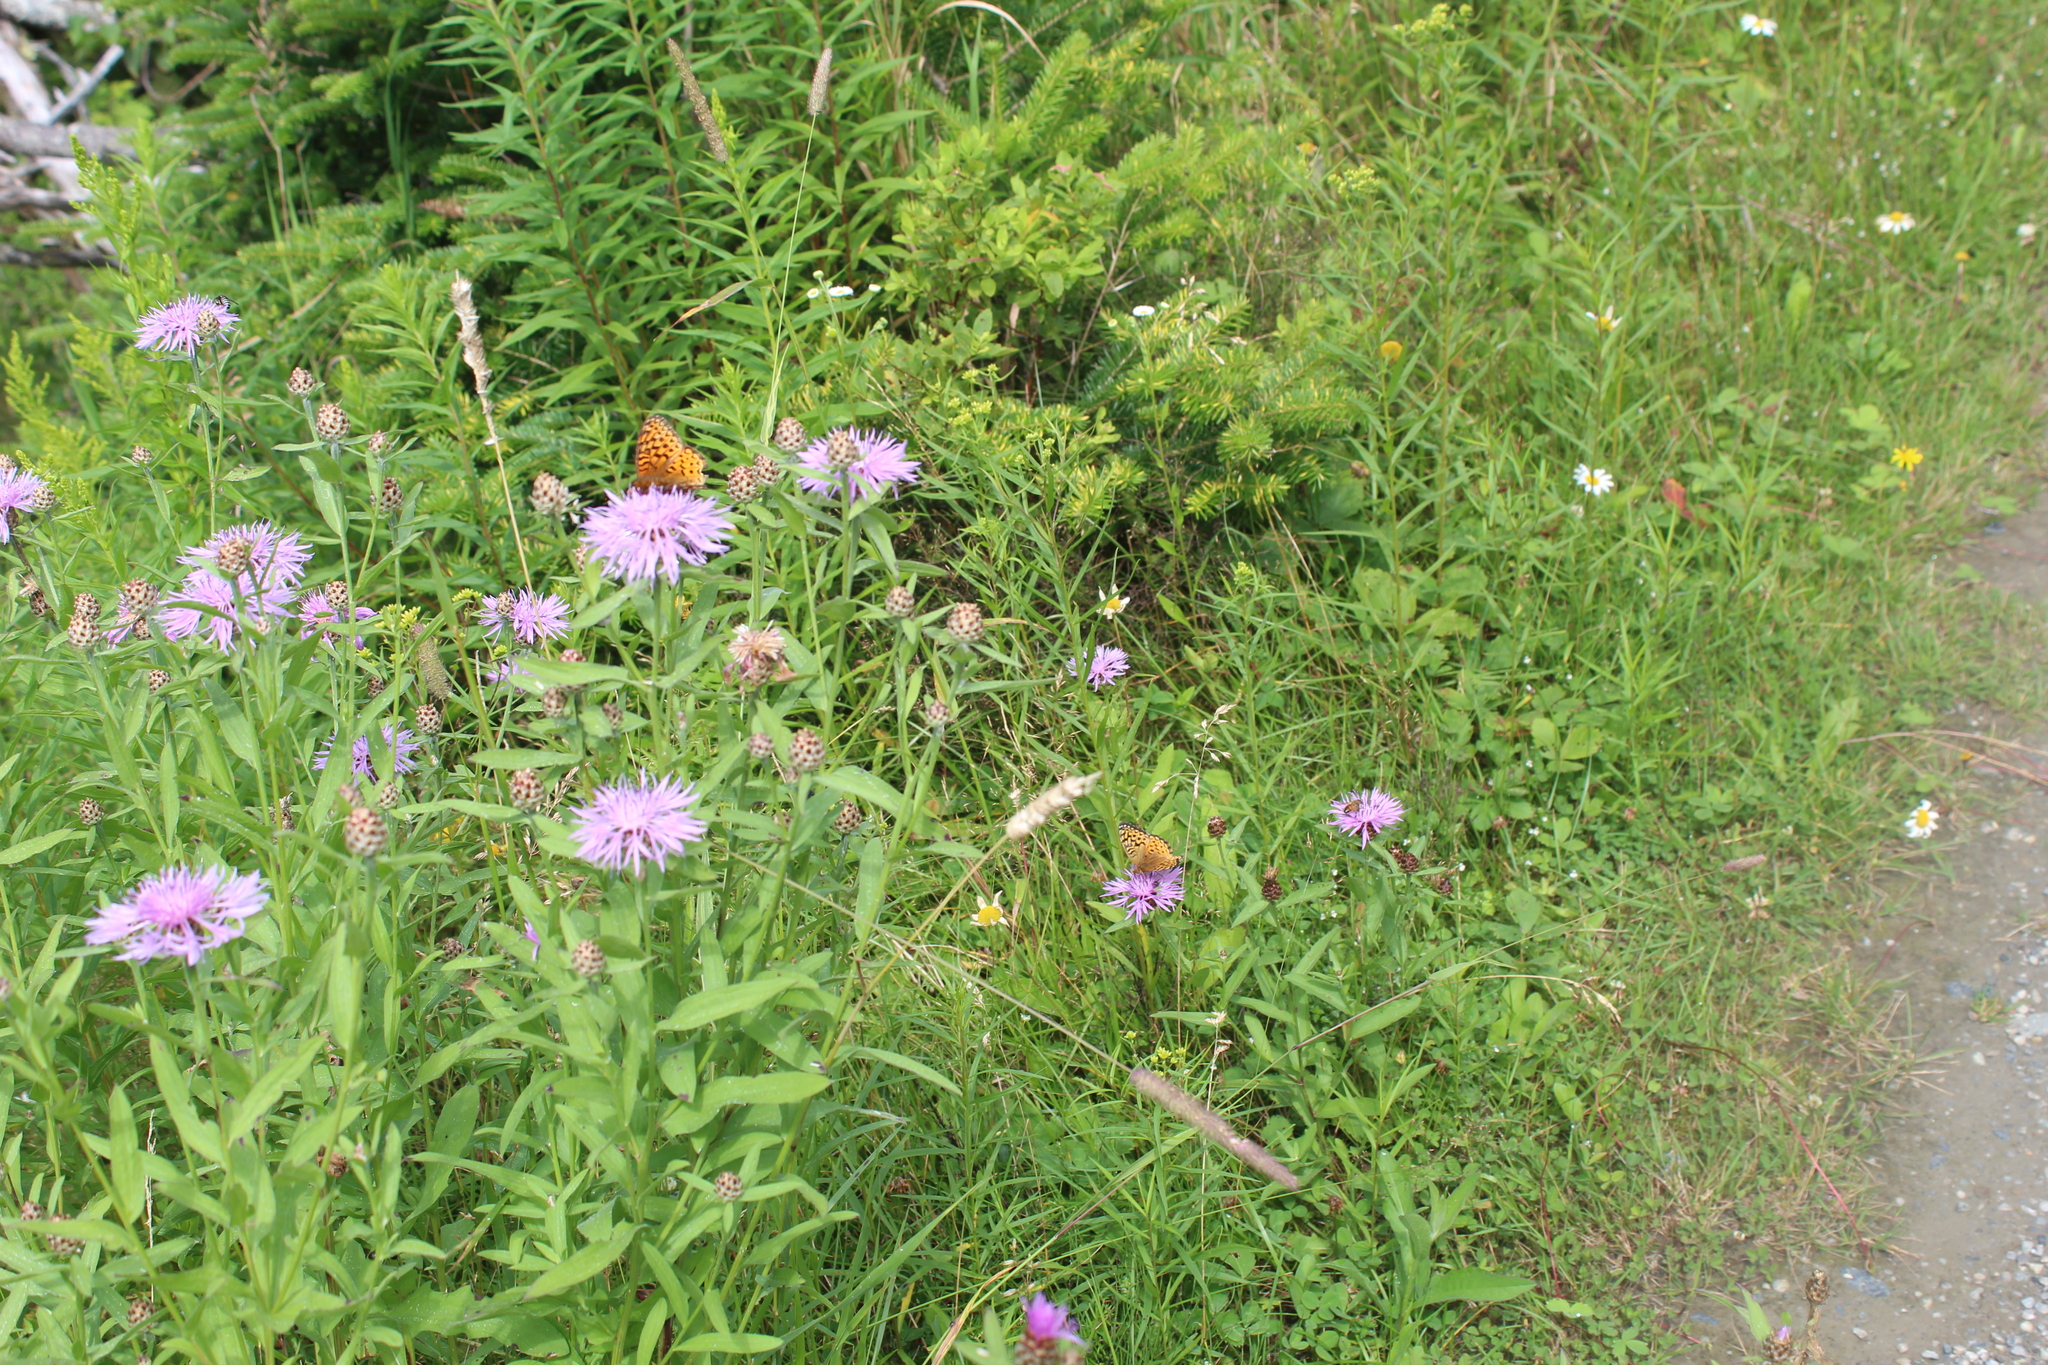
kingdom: Animalia
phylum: Arthropoda
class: Insecta
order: Lepidoptera
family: Nymphalidae
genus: Speyeria
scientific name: Speyeria atlantis
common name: Atlantis fritillary
